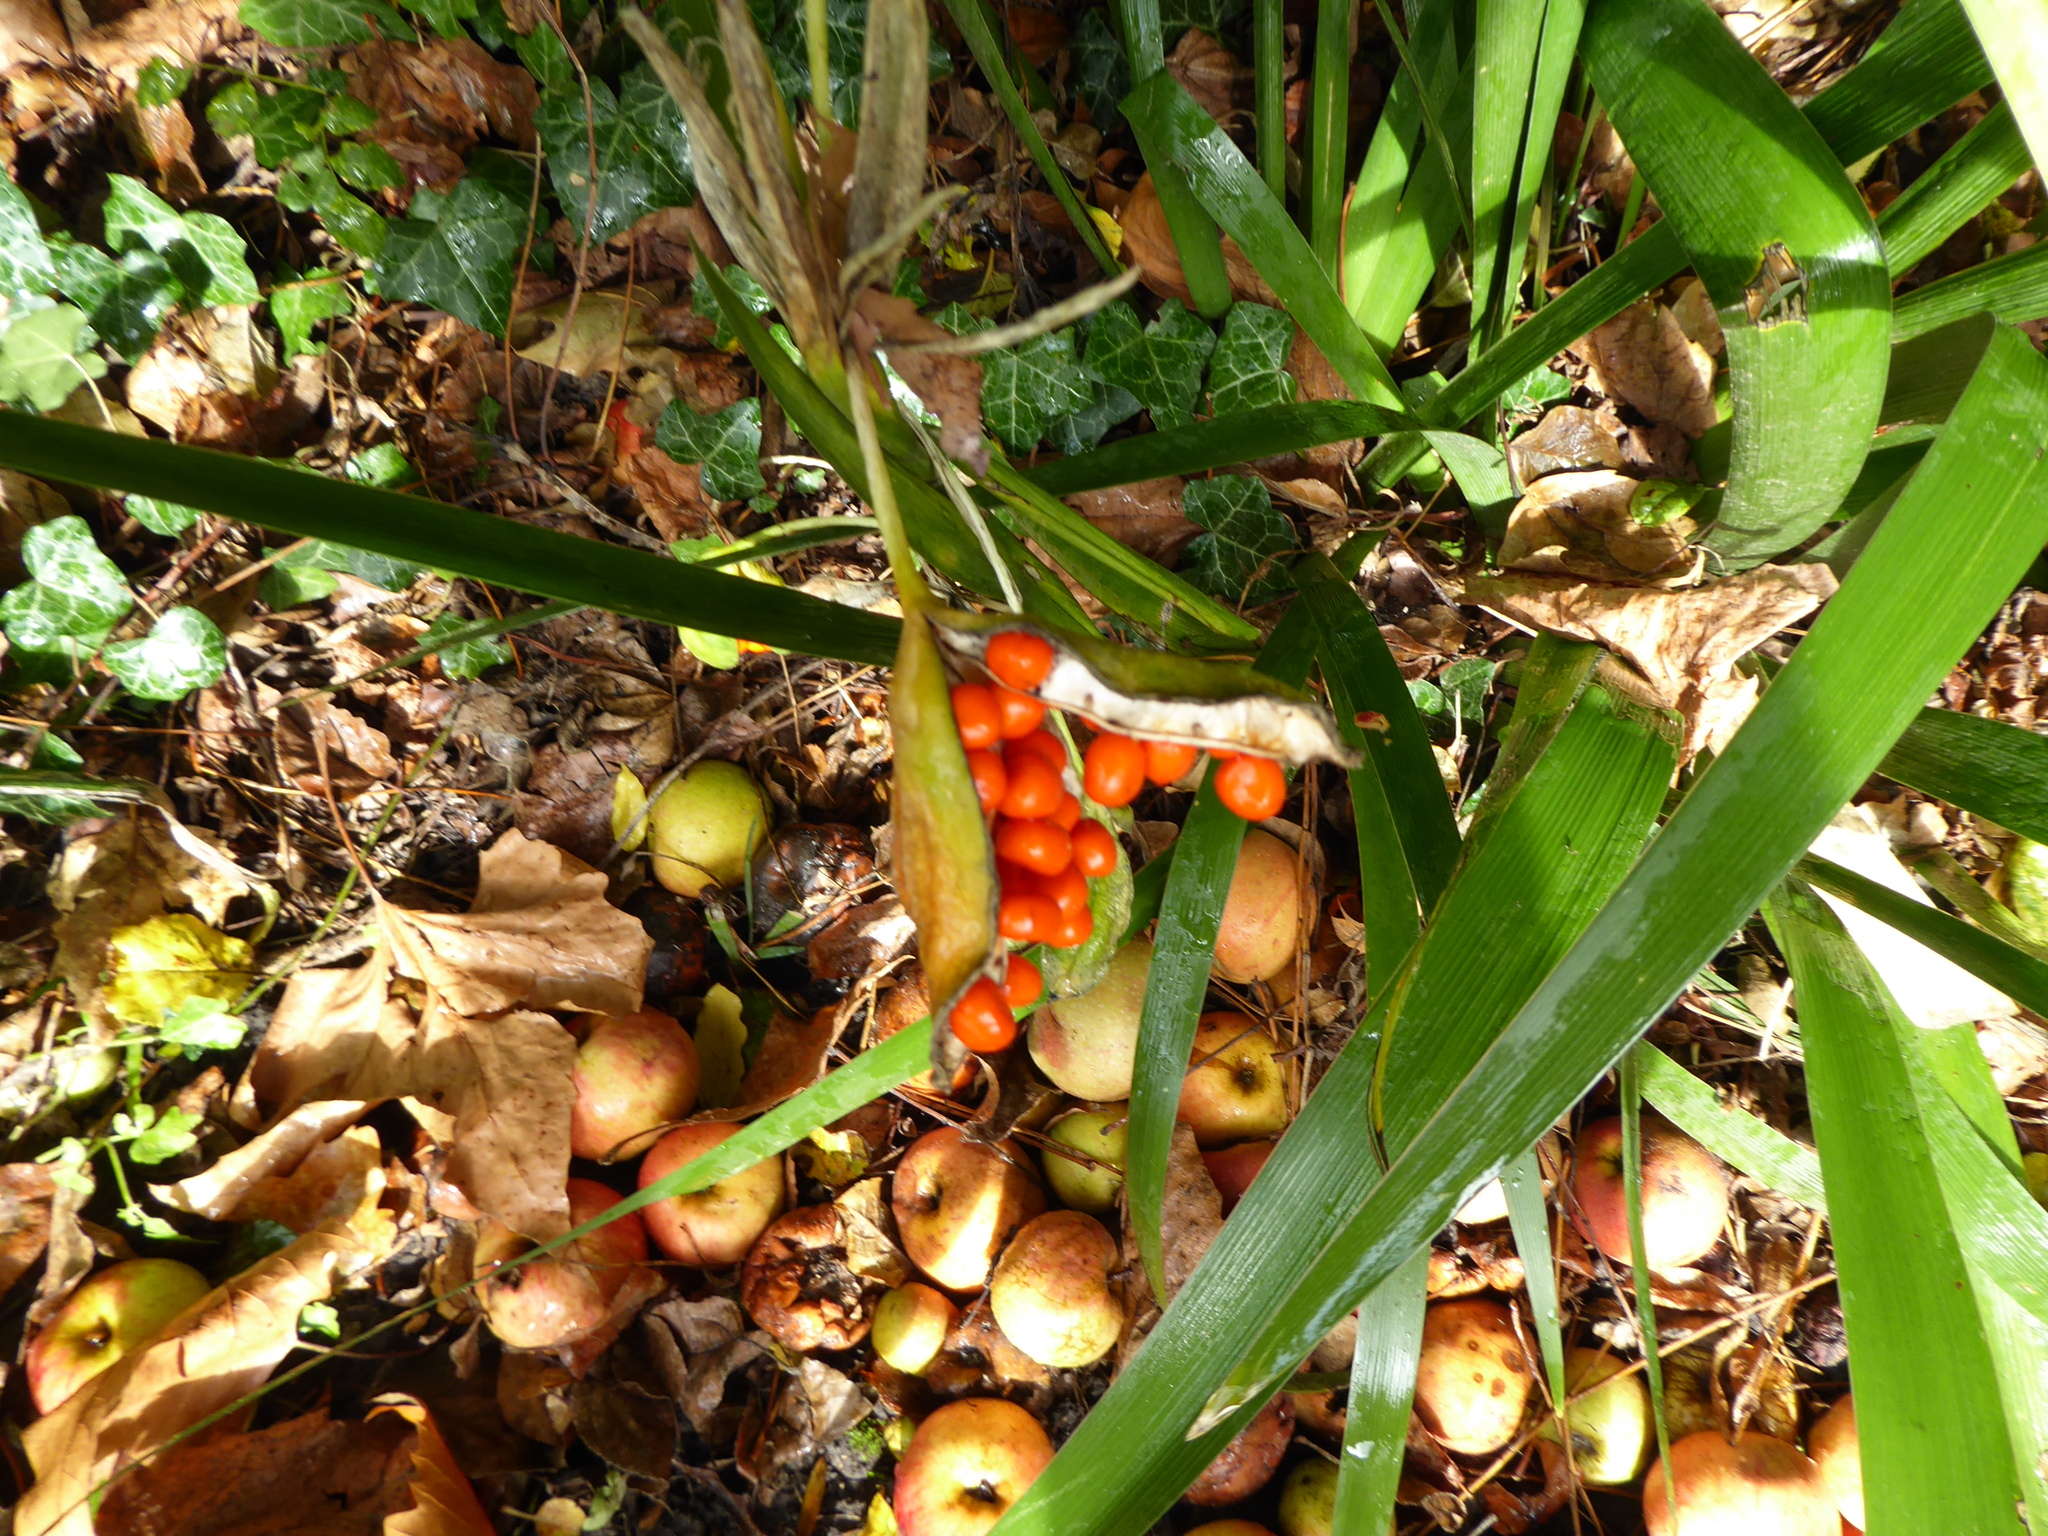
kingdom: Plantae
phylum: Tracheophyta
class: Liliopsida
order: Asparagales
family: Iridaceae
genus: Iris
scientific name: Iris foetidissima
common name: Stinking iris
